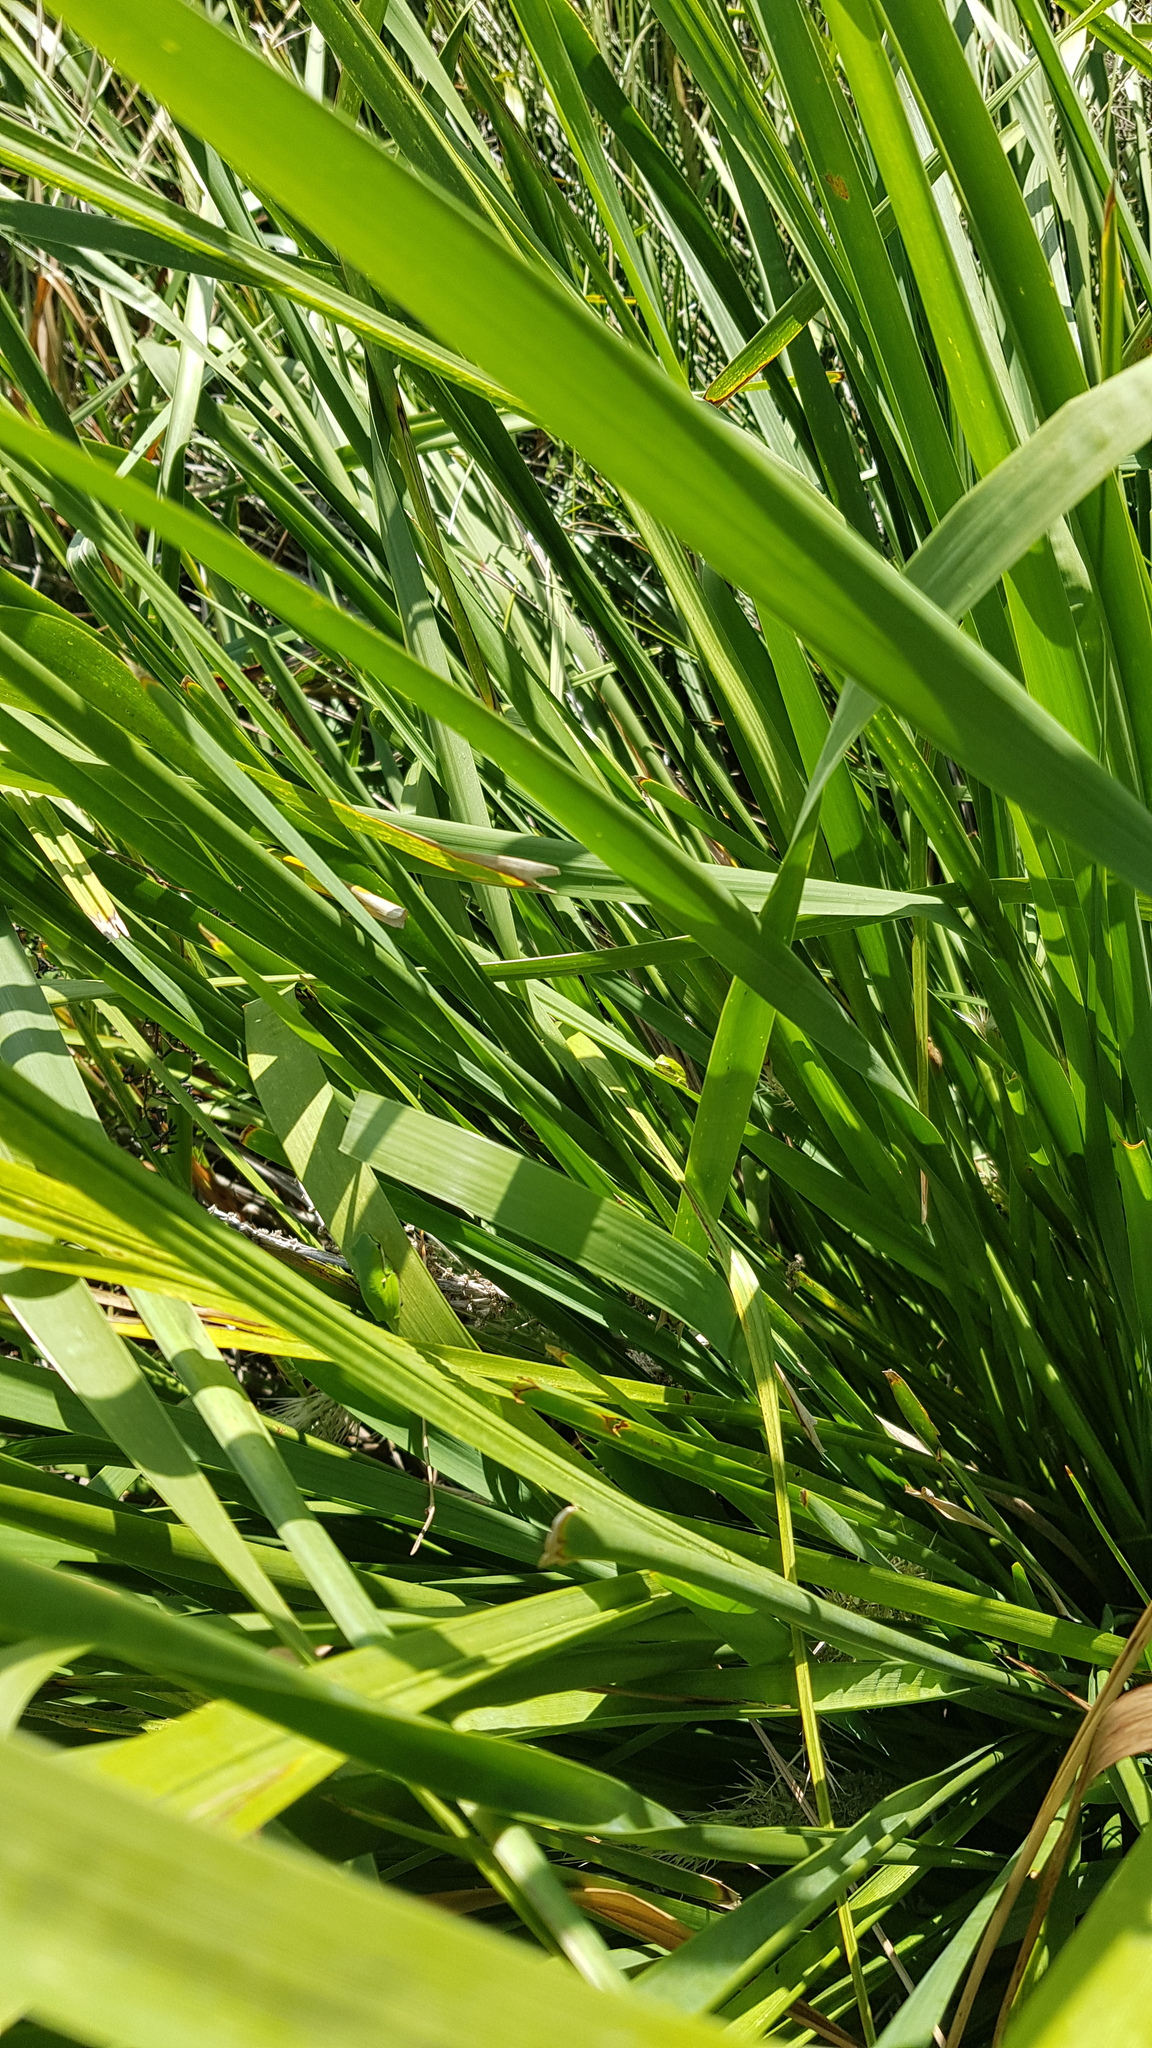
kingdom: Animalia
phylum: Chordata
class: Amphibia
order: Anura
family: Pelodryadidae
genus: Litoria
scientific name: Litoria fallax
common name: Eastern dwarf treefrog
